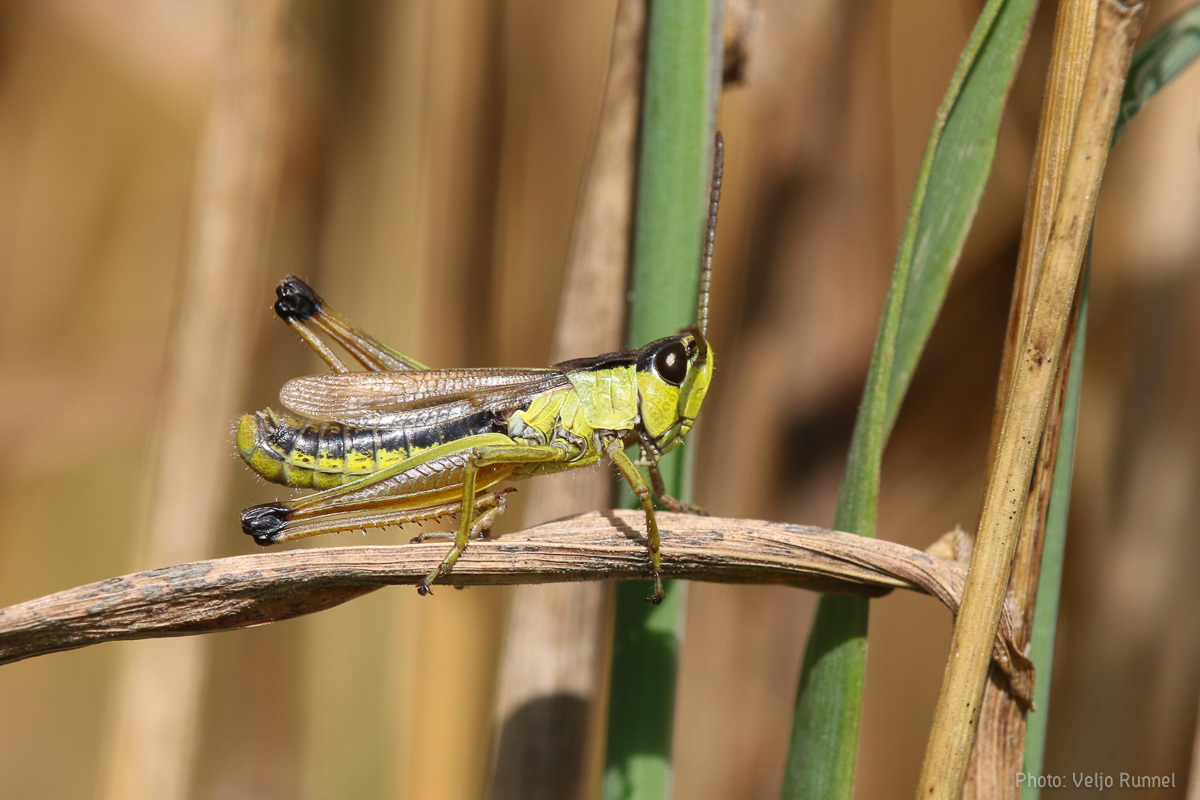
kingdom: Animalia
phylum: Arthropoda
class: Insecta
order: Orthoptera
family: Acrididae
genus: Pseudochorthippus
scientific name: Pseudochorthippus parallelus
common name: Meadow grasshopper
